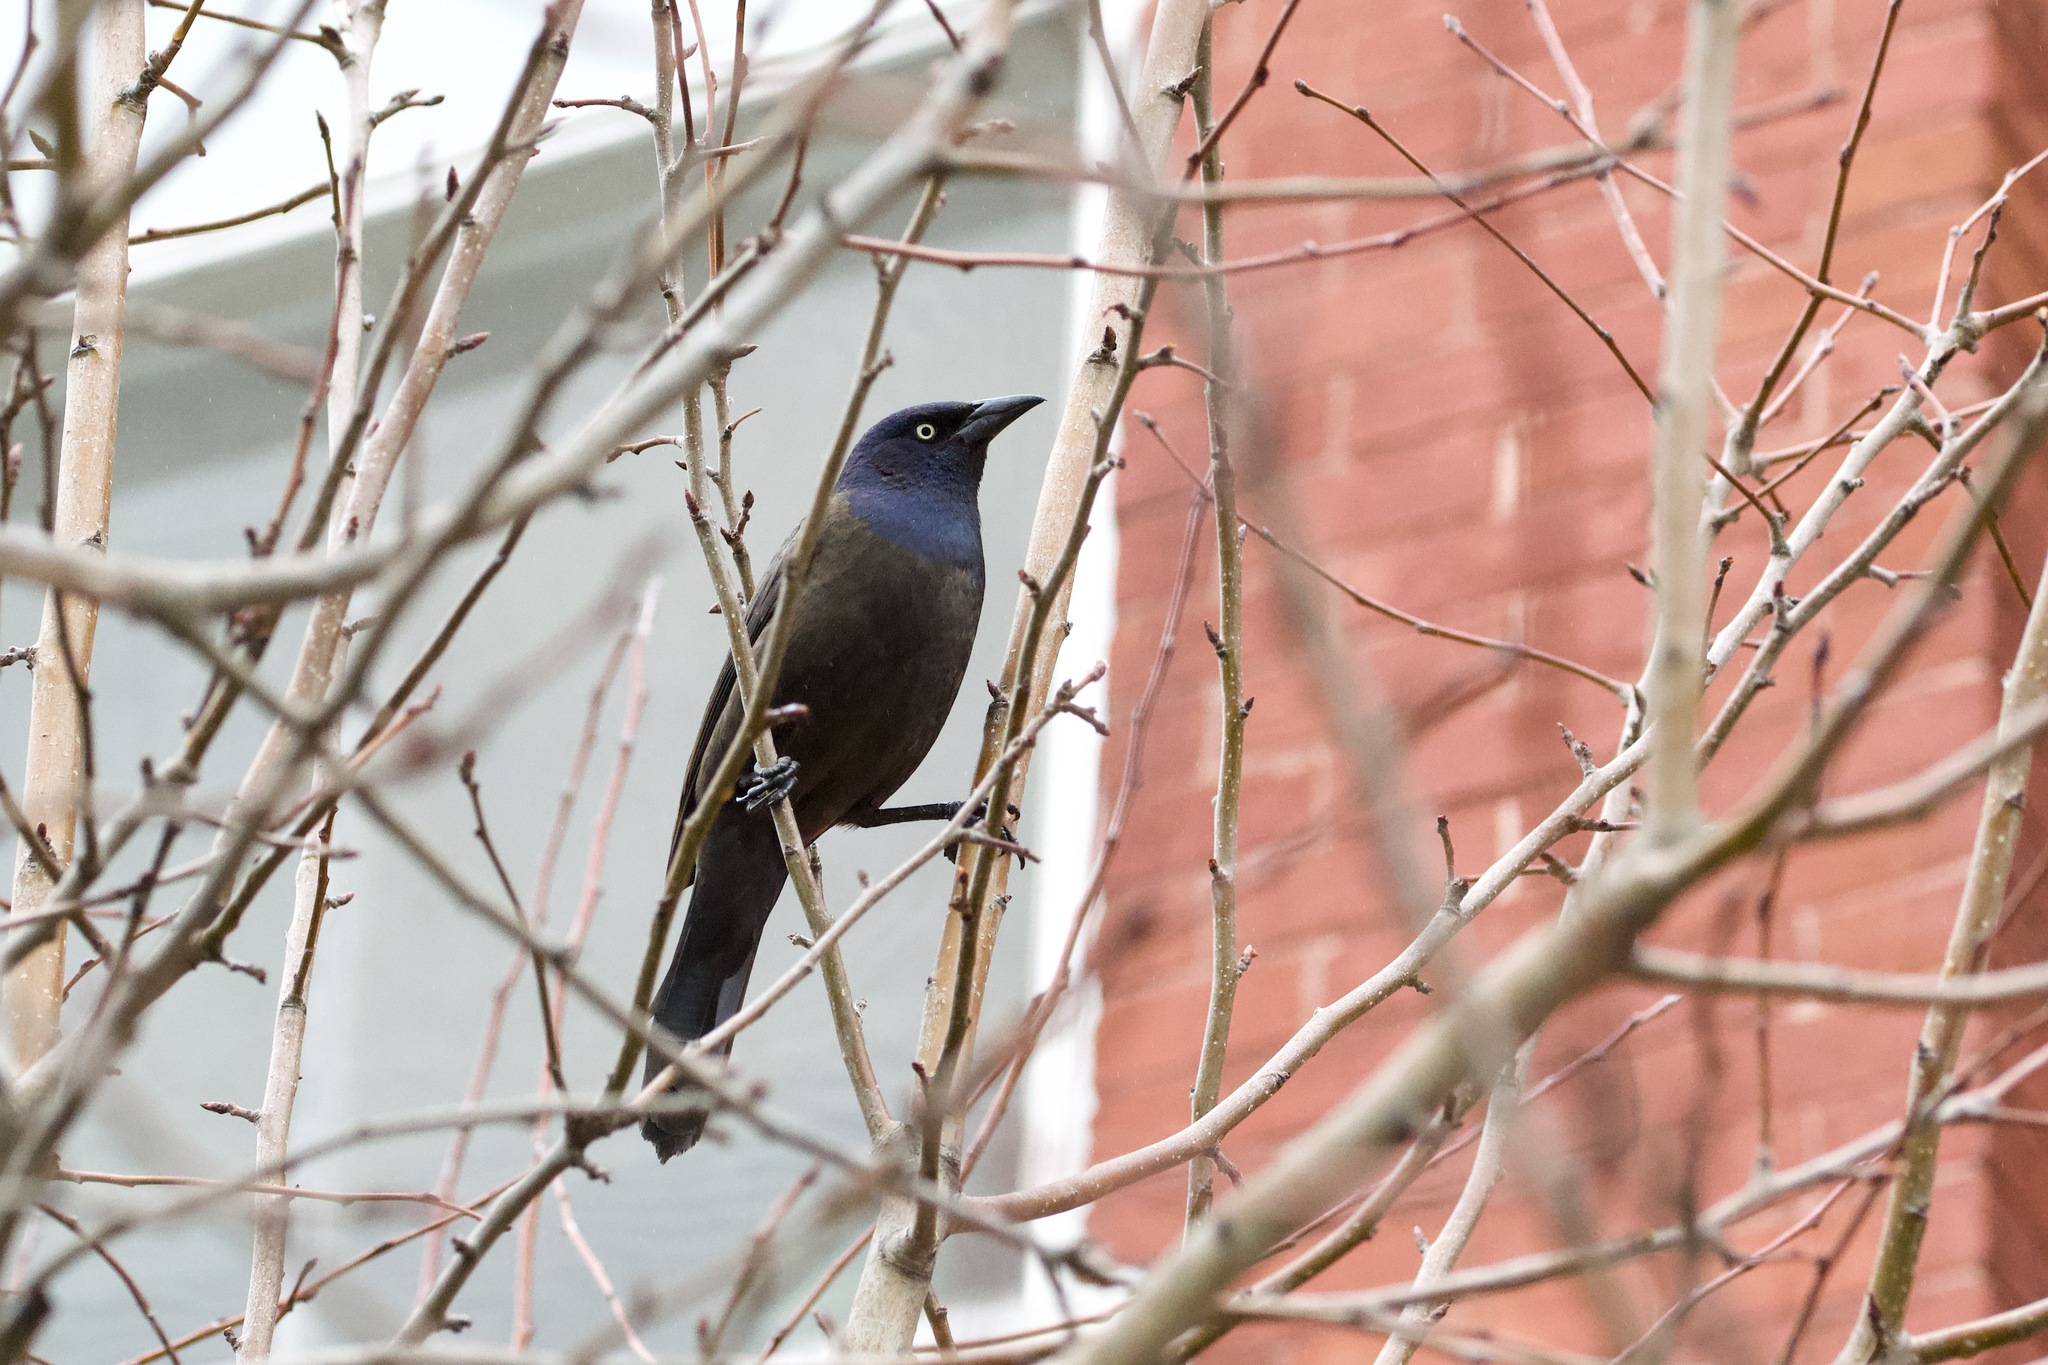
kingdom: Animalia
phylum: Chordata
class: Aves
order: Passeriformes
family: Icteridae
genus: Quiscalus
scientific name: Quiscalus quiscula
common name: Common grackle
